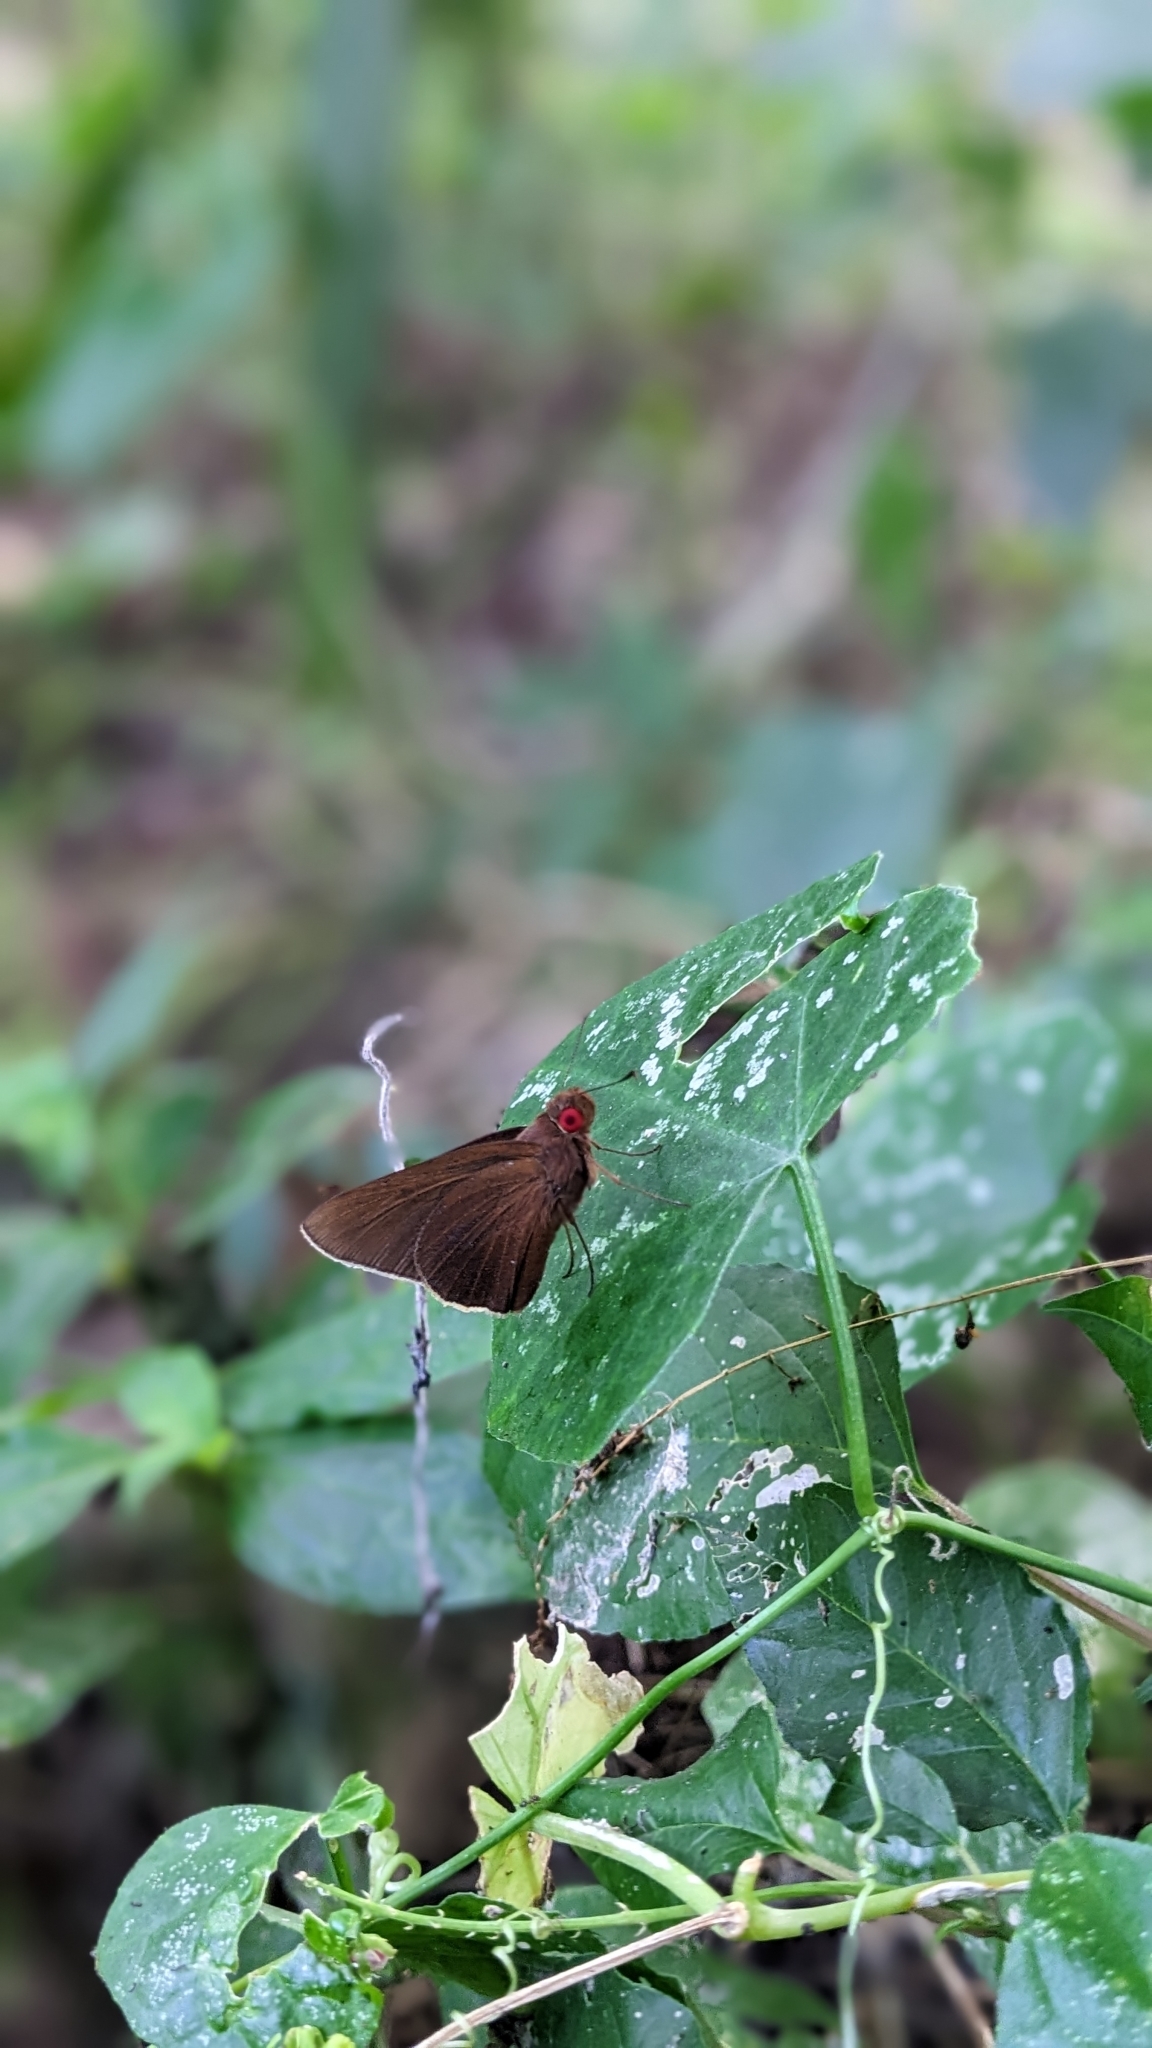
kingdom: Animalia
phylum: Arthropoda
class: Insecta
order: Lepidoptera
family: Hesperiidae
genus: Matapa
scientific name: Matapa aria
